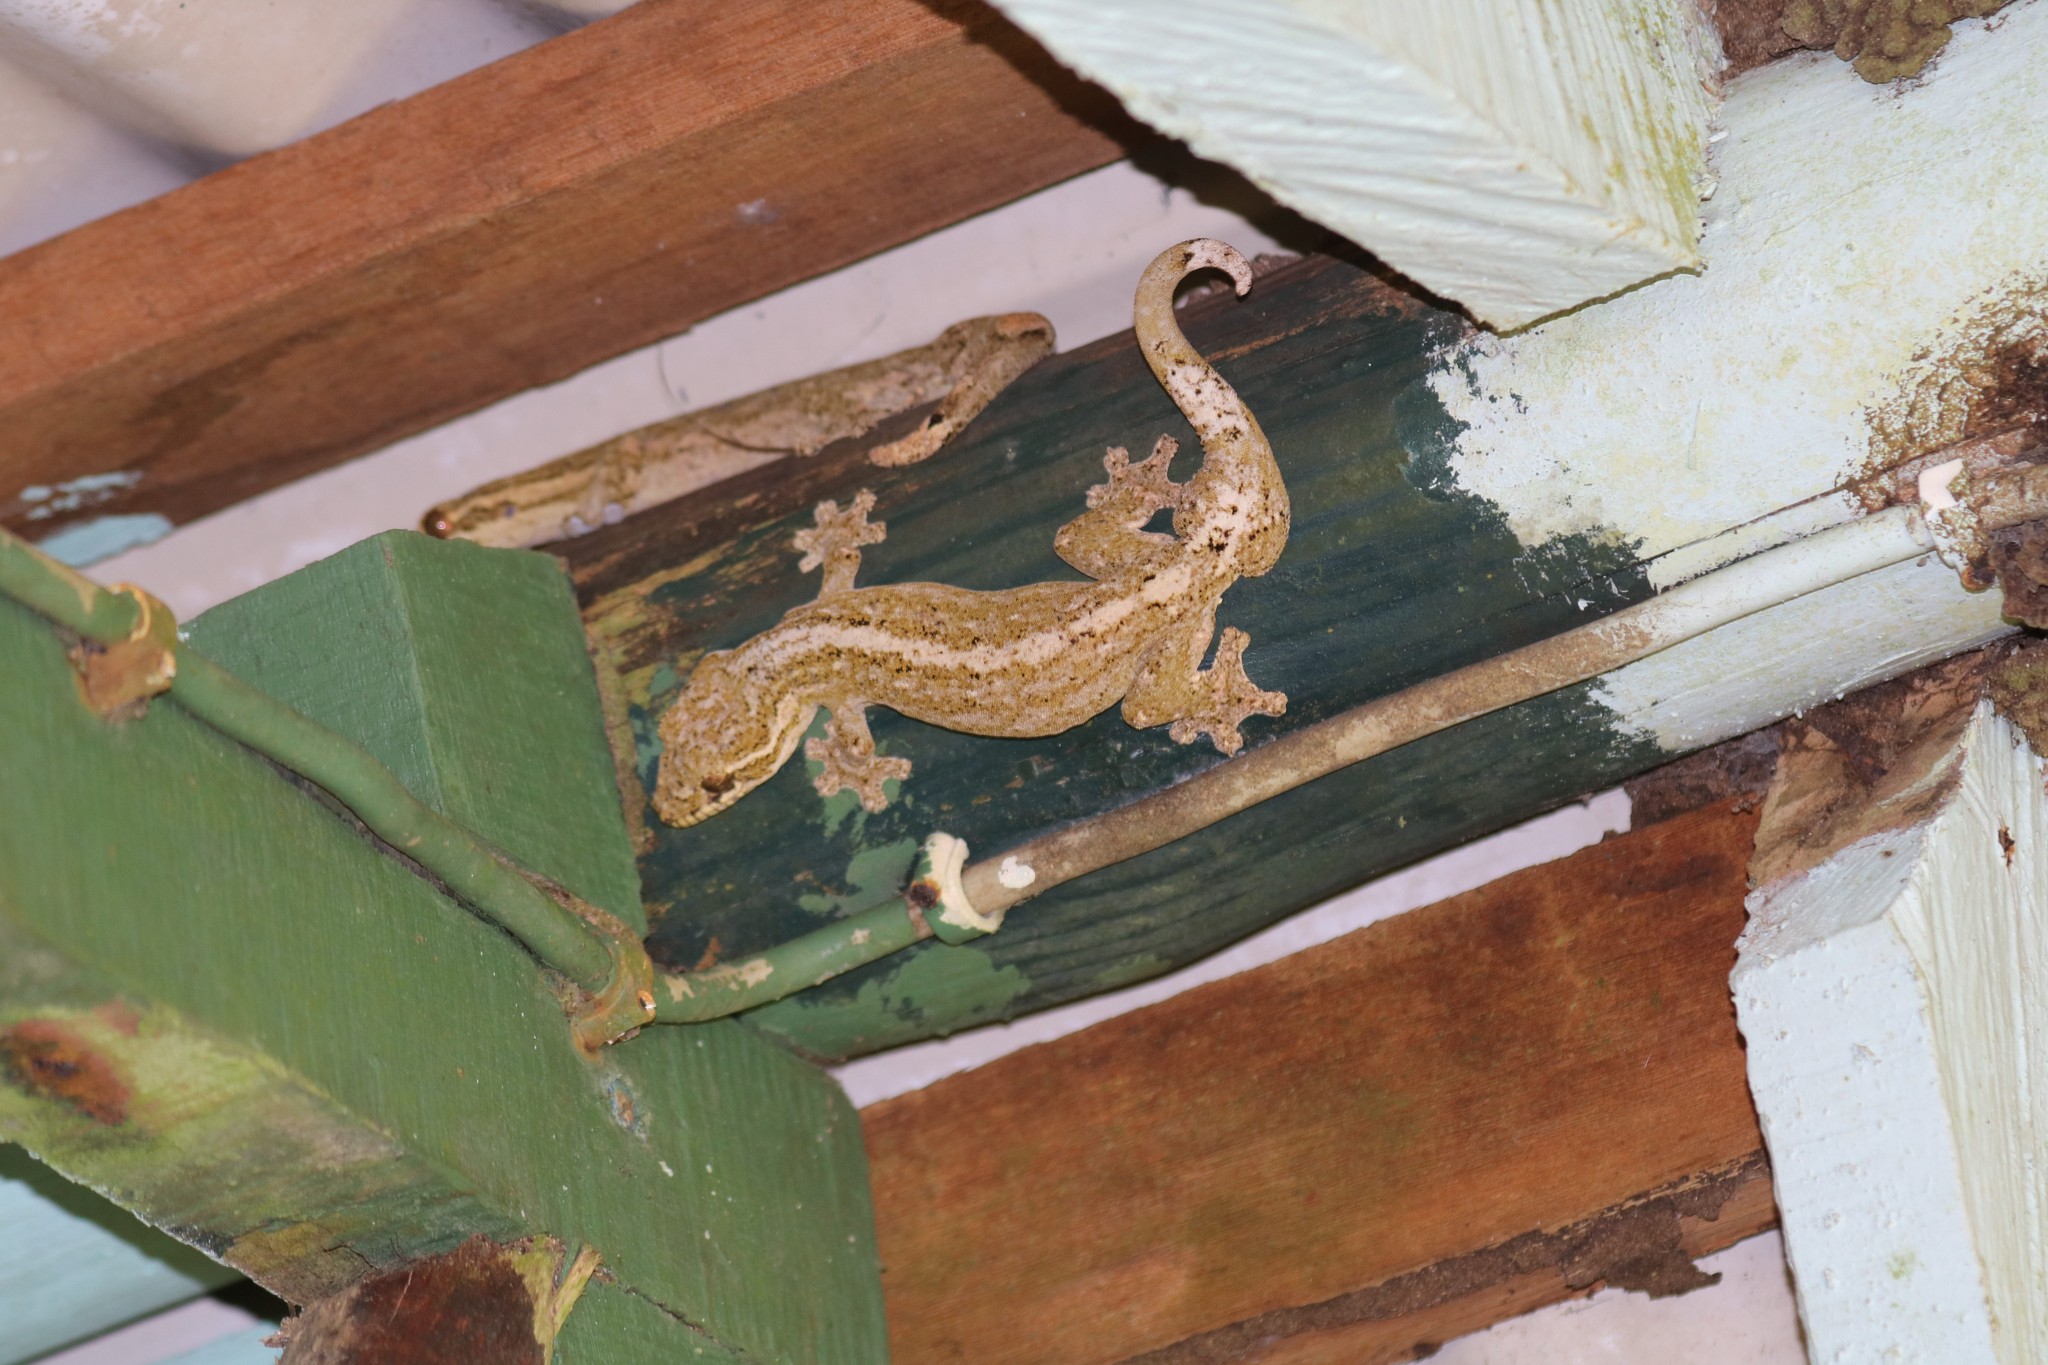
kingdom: Animalia
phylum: Chordata
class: Squamata
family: Phyllodactylidae
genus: Thecadactylus
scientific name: Thecadactylus rapicauda
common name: Turnip-tailed gecko
